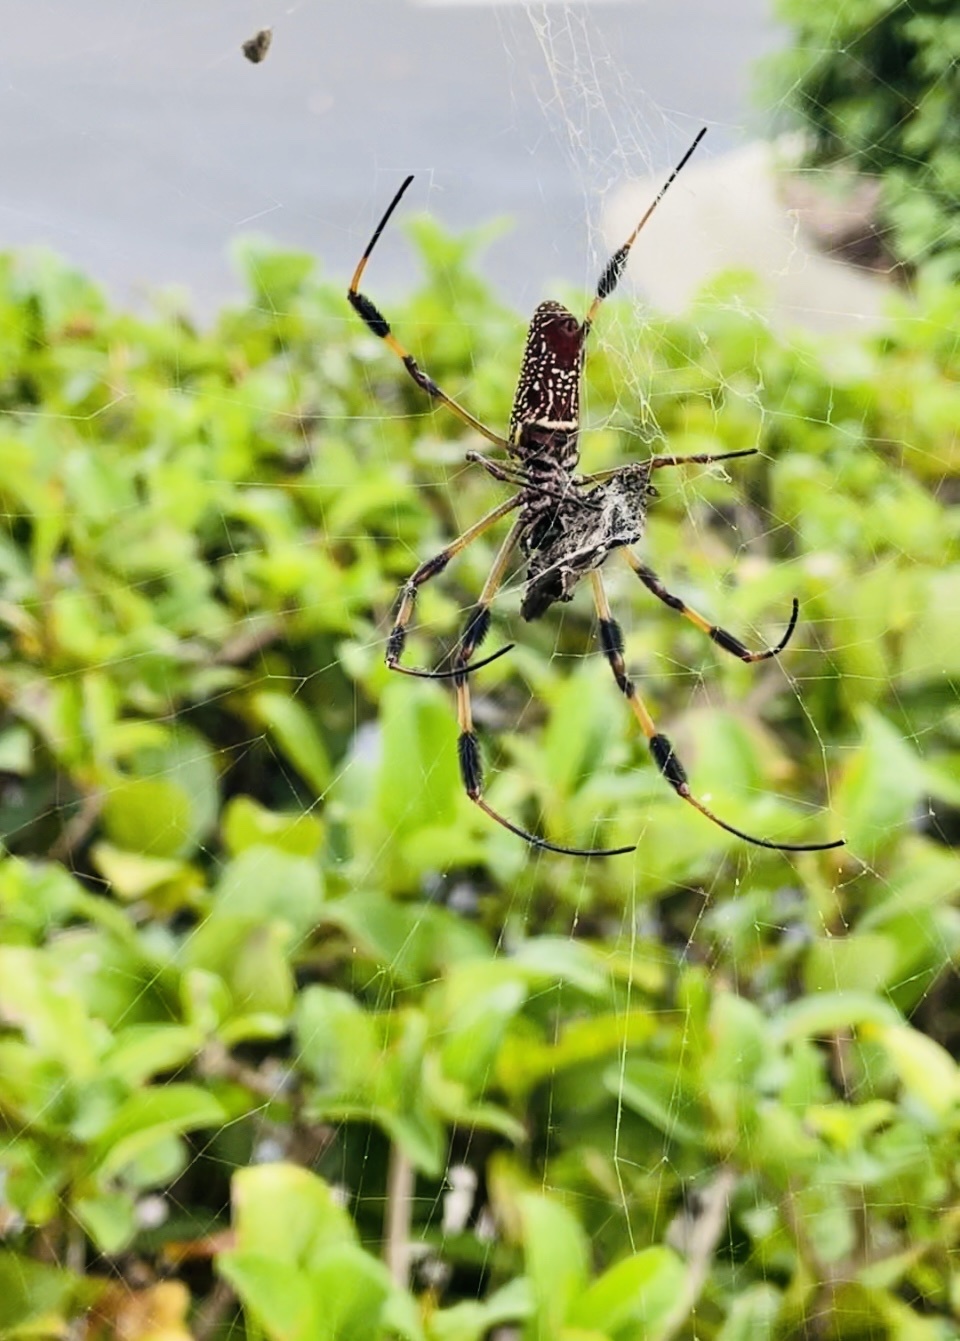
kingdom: Animalia
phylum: Arthropoda
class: Arachnida
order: Araneae
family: Araneidae
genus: Trichonephila
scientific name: Trichonephila clavipes
